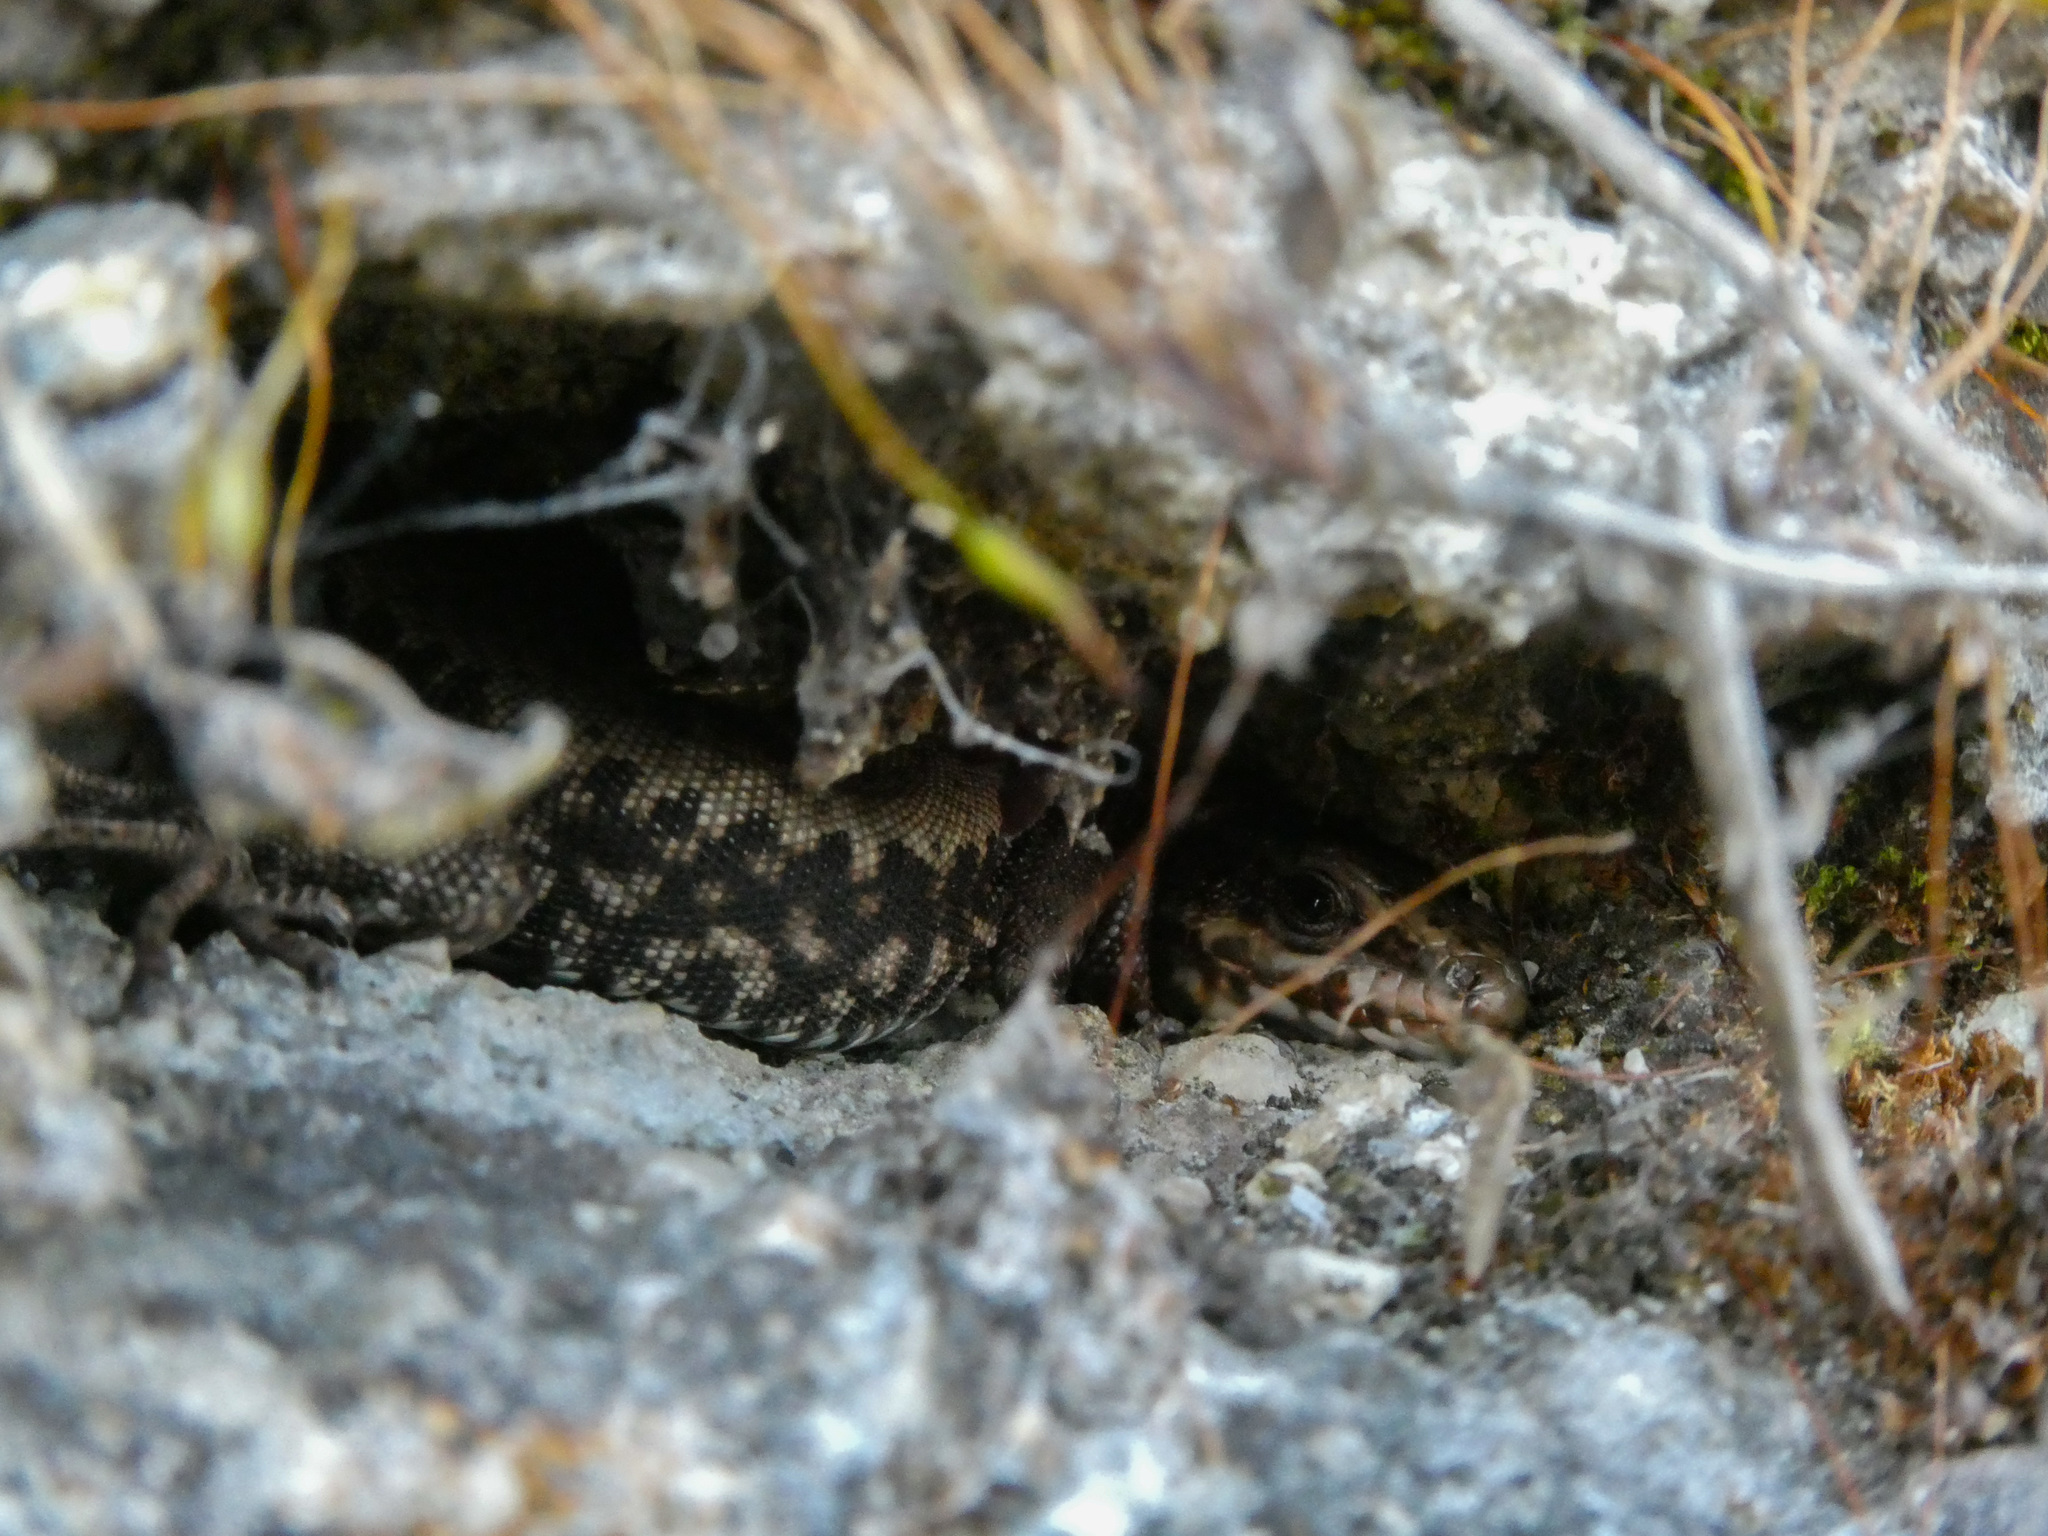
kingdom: Animalia
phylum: Chordata
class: Squamata
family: Lacertidae
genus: Podarcis
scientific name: Podarcis muralis
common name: Common wall lizard
